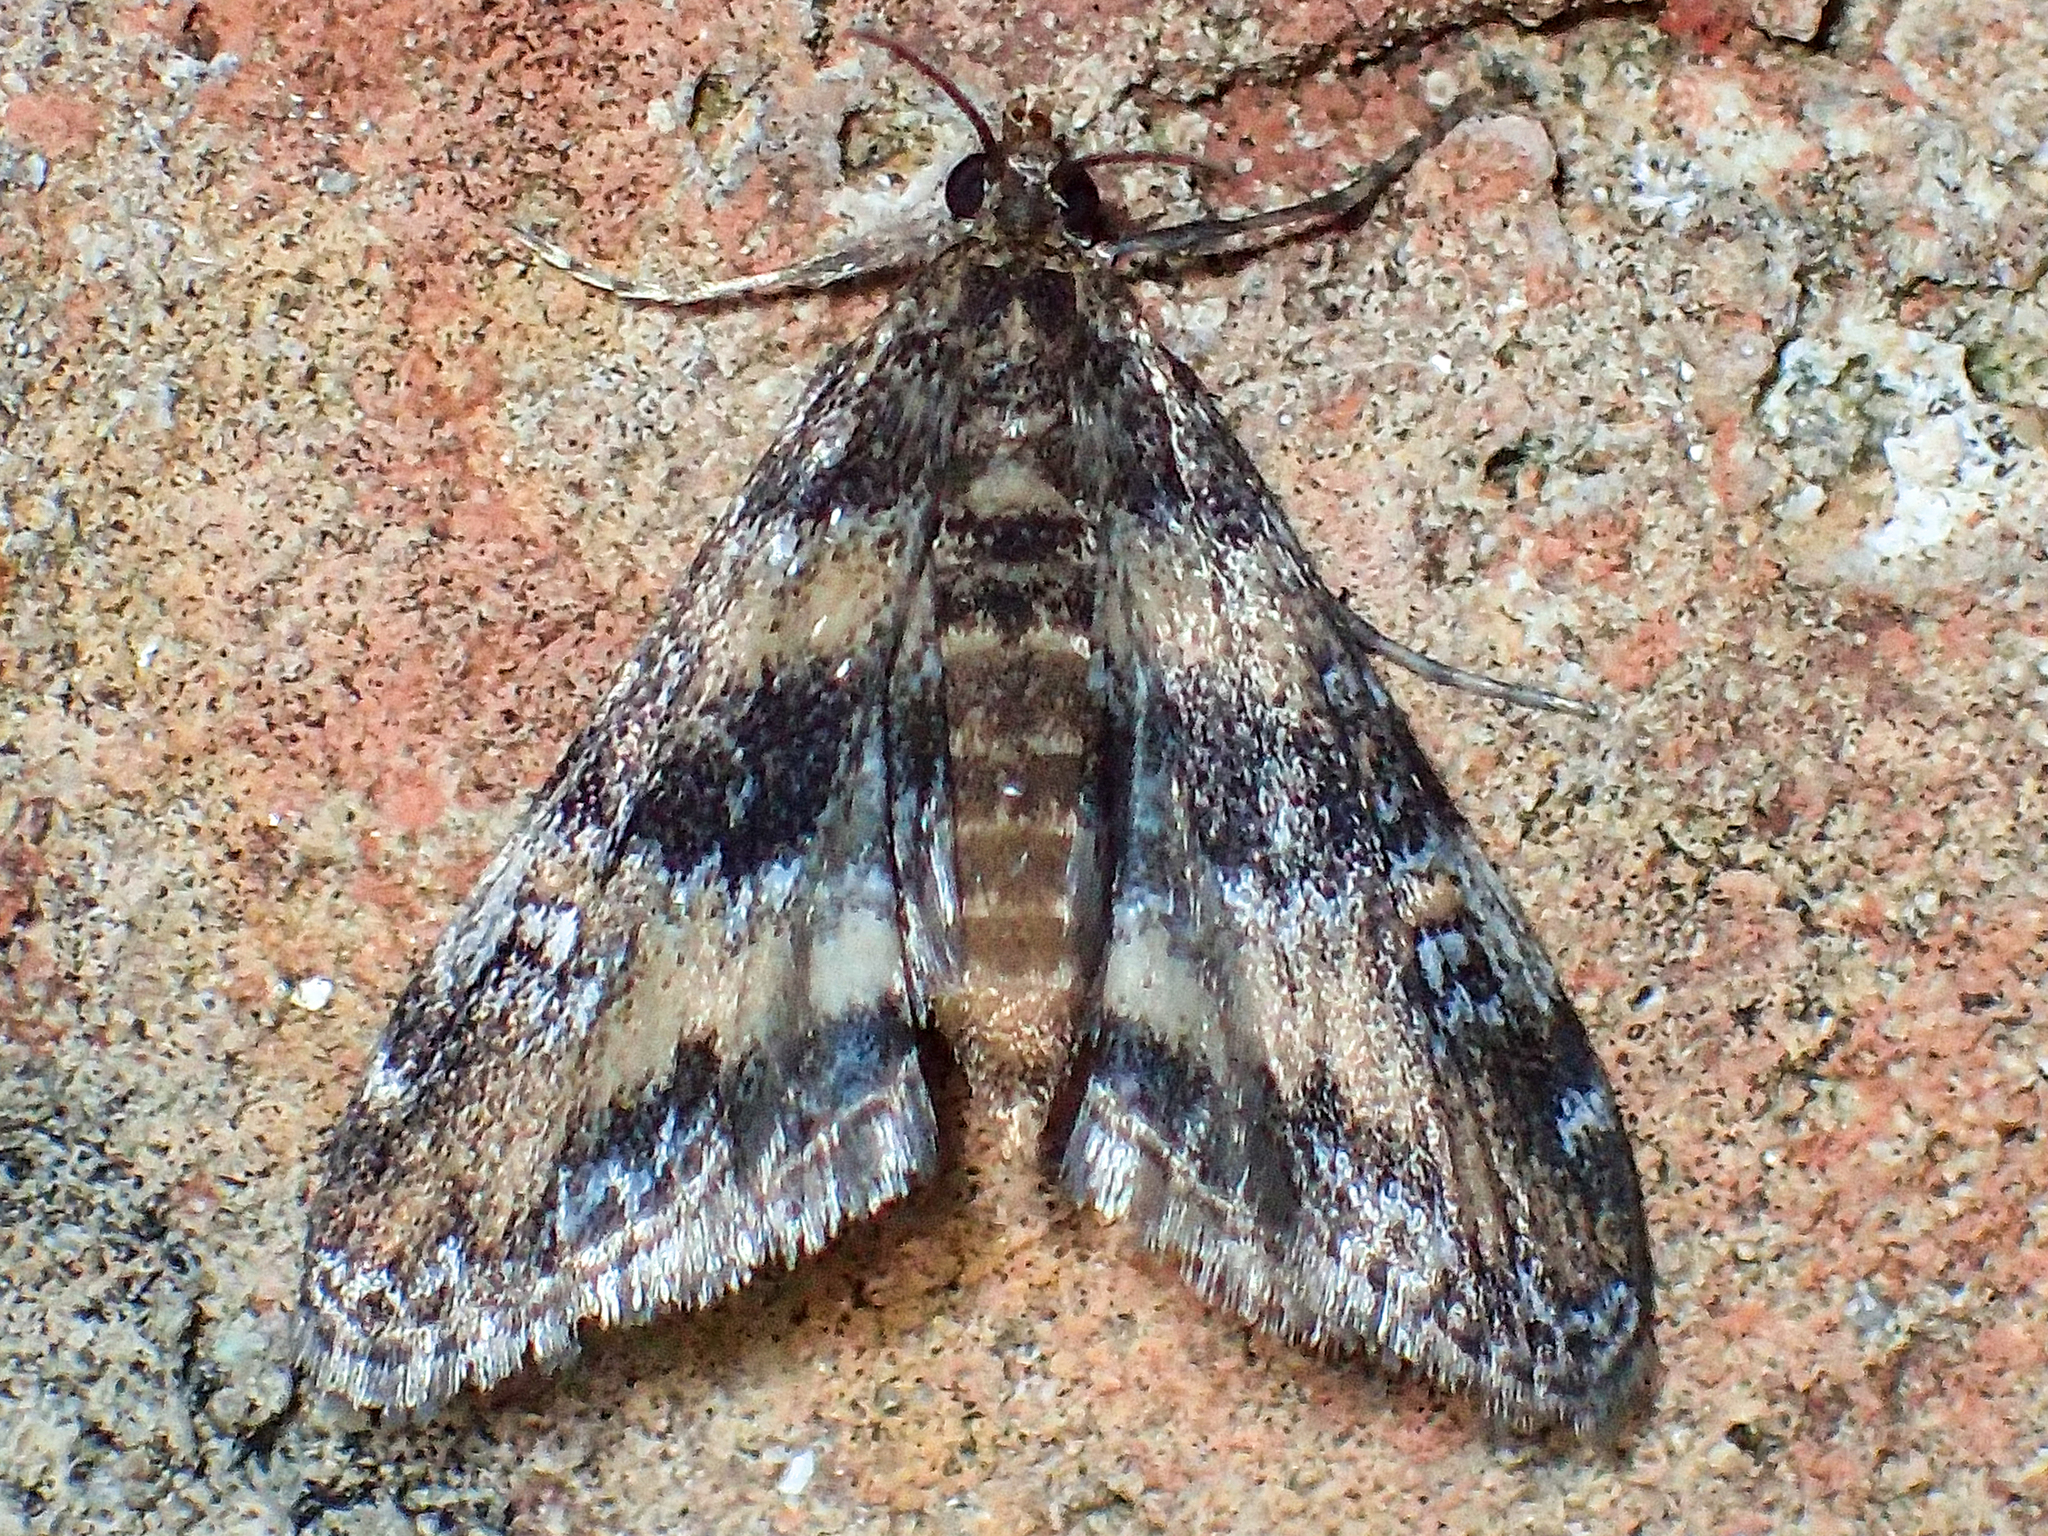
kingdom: Animalia
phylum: Arthropoda
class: Insecta
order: Lepidoptera
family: Crambidae
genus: Elophila
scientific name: Elophila obliteralis
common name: Waterlily leafcutter moth
